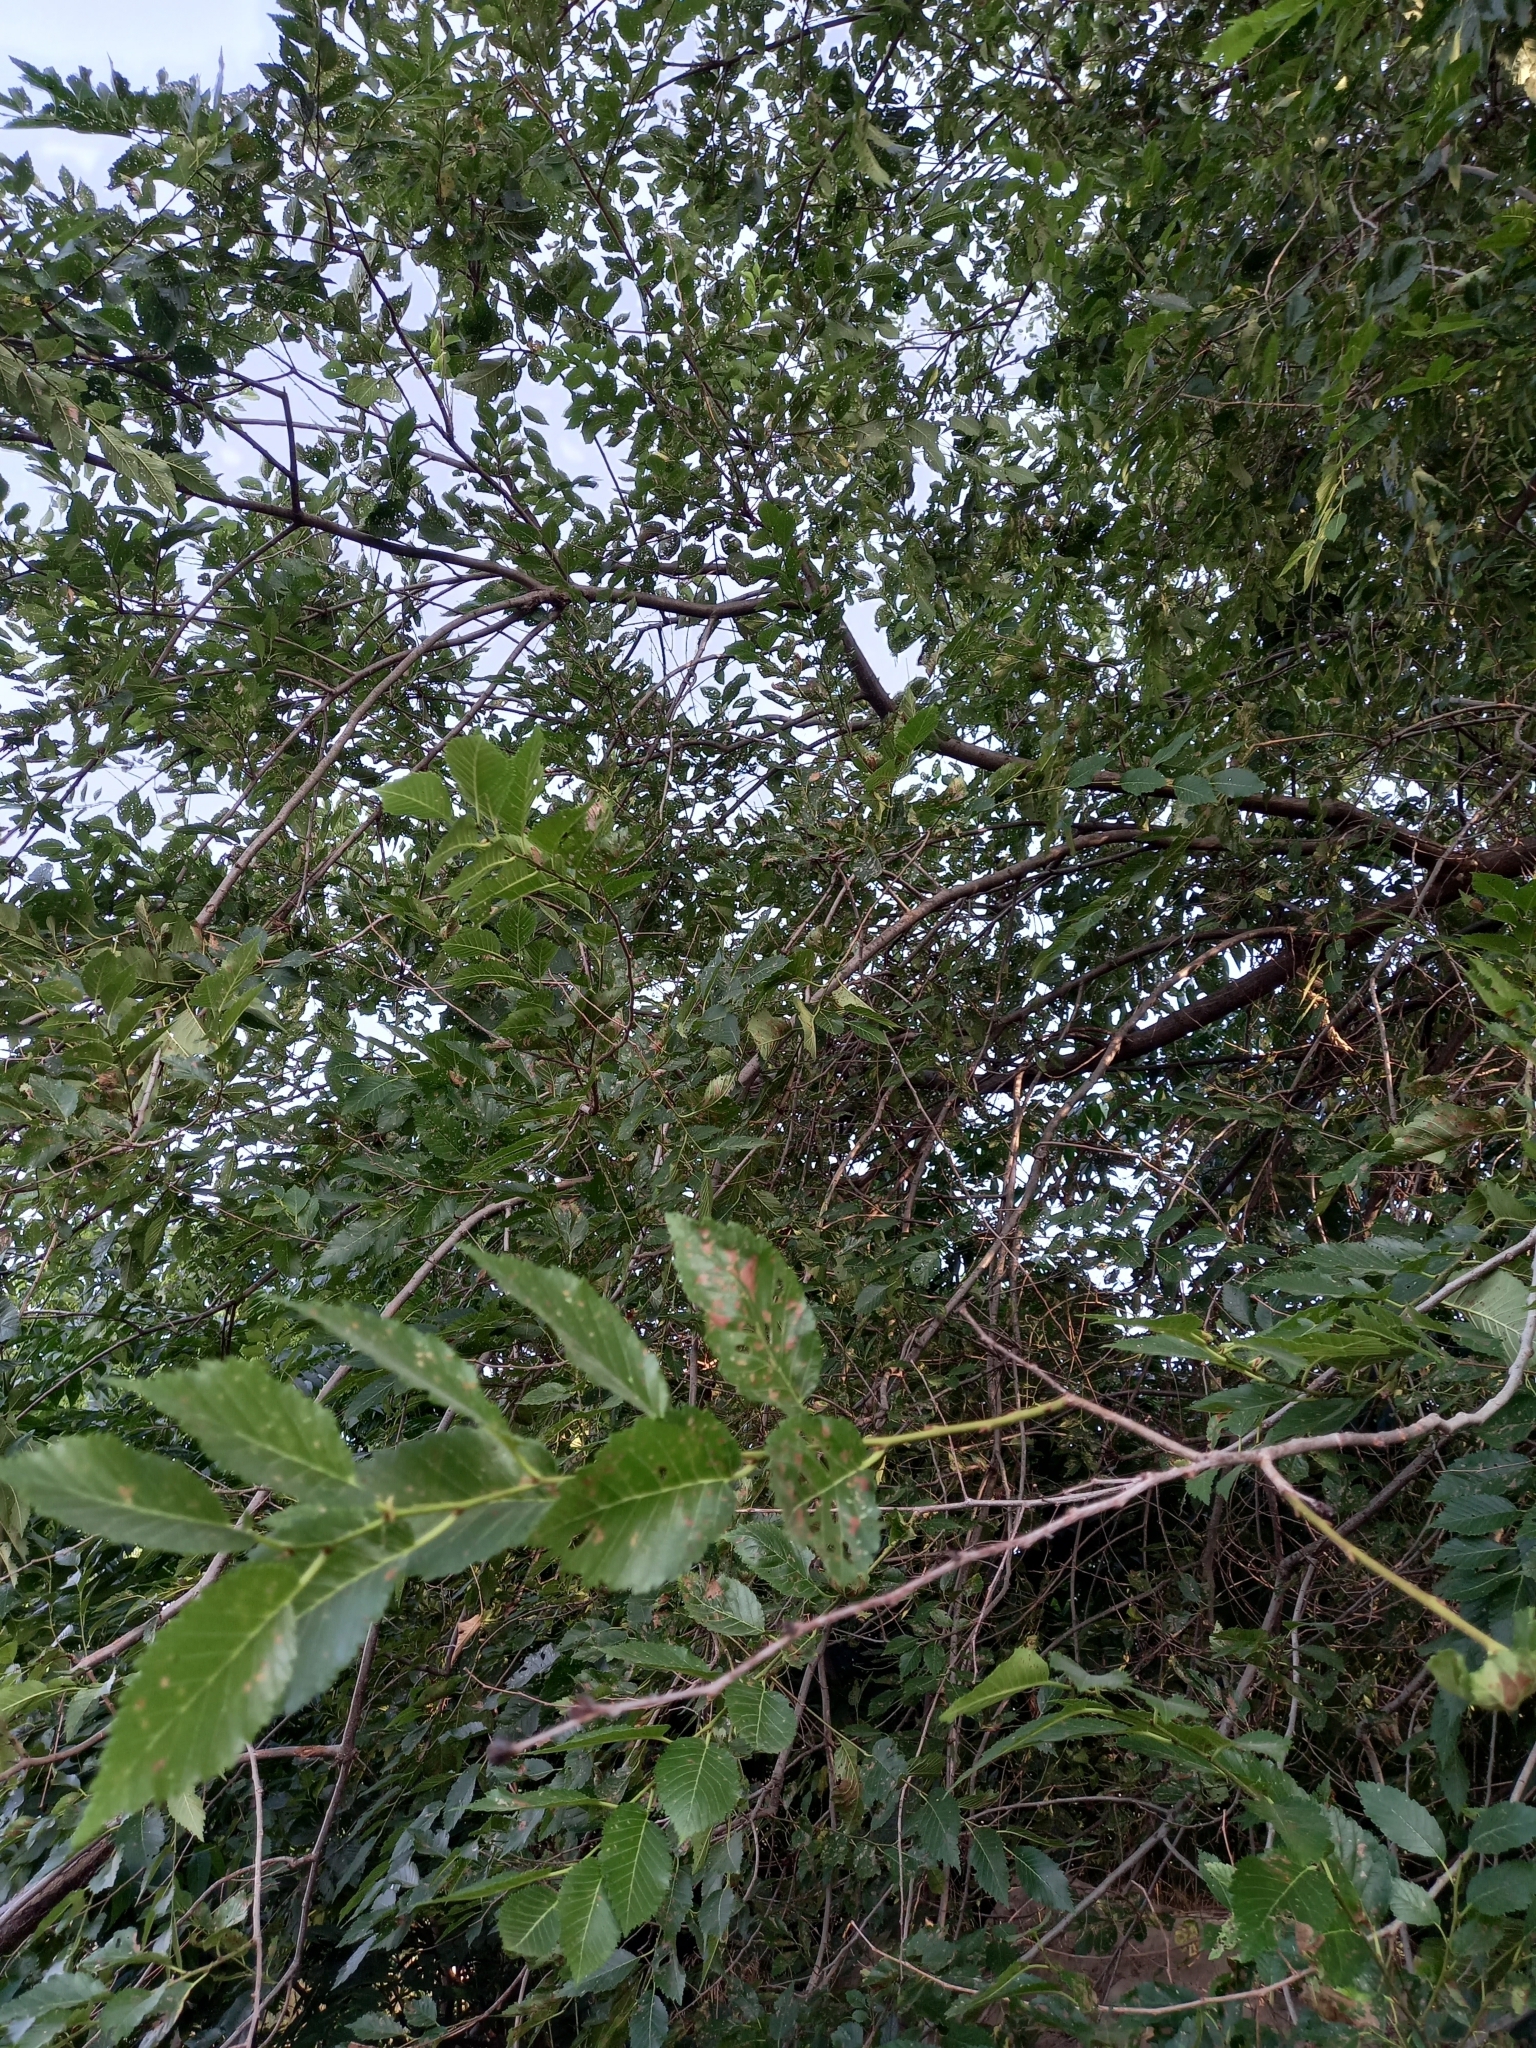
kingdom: Plantae
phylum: Tracheophyta
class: Magnoliopsida
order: Rosales
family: Ulmaceae
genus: Ulmus
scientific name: Ulmus pumila
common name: Siberian elm
